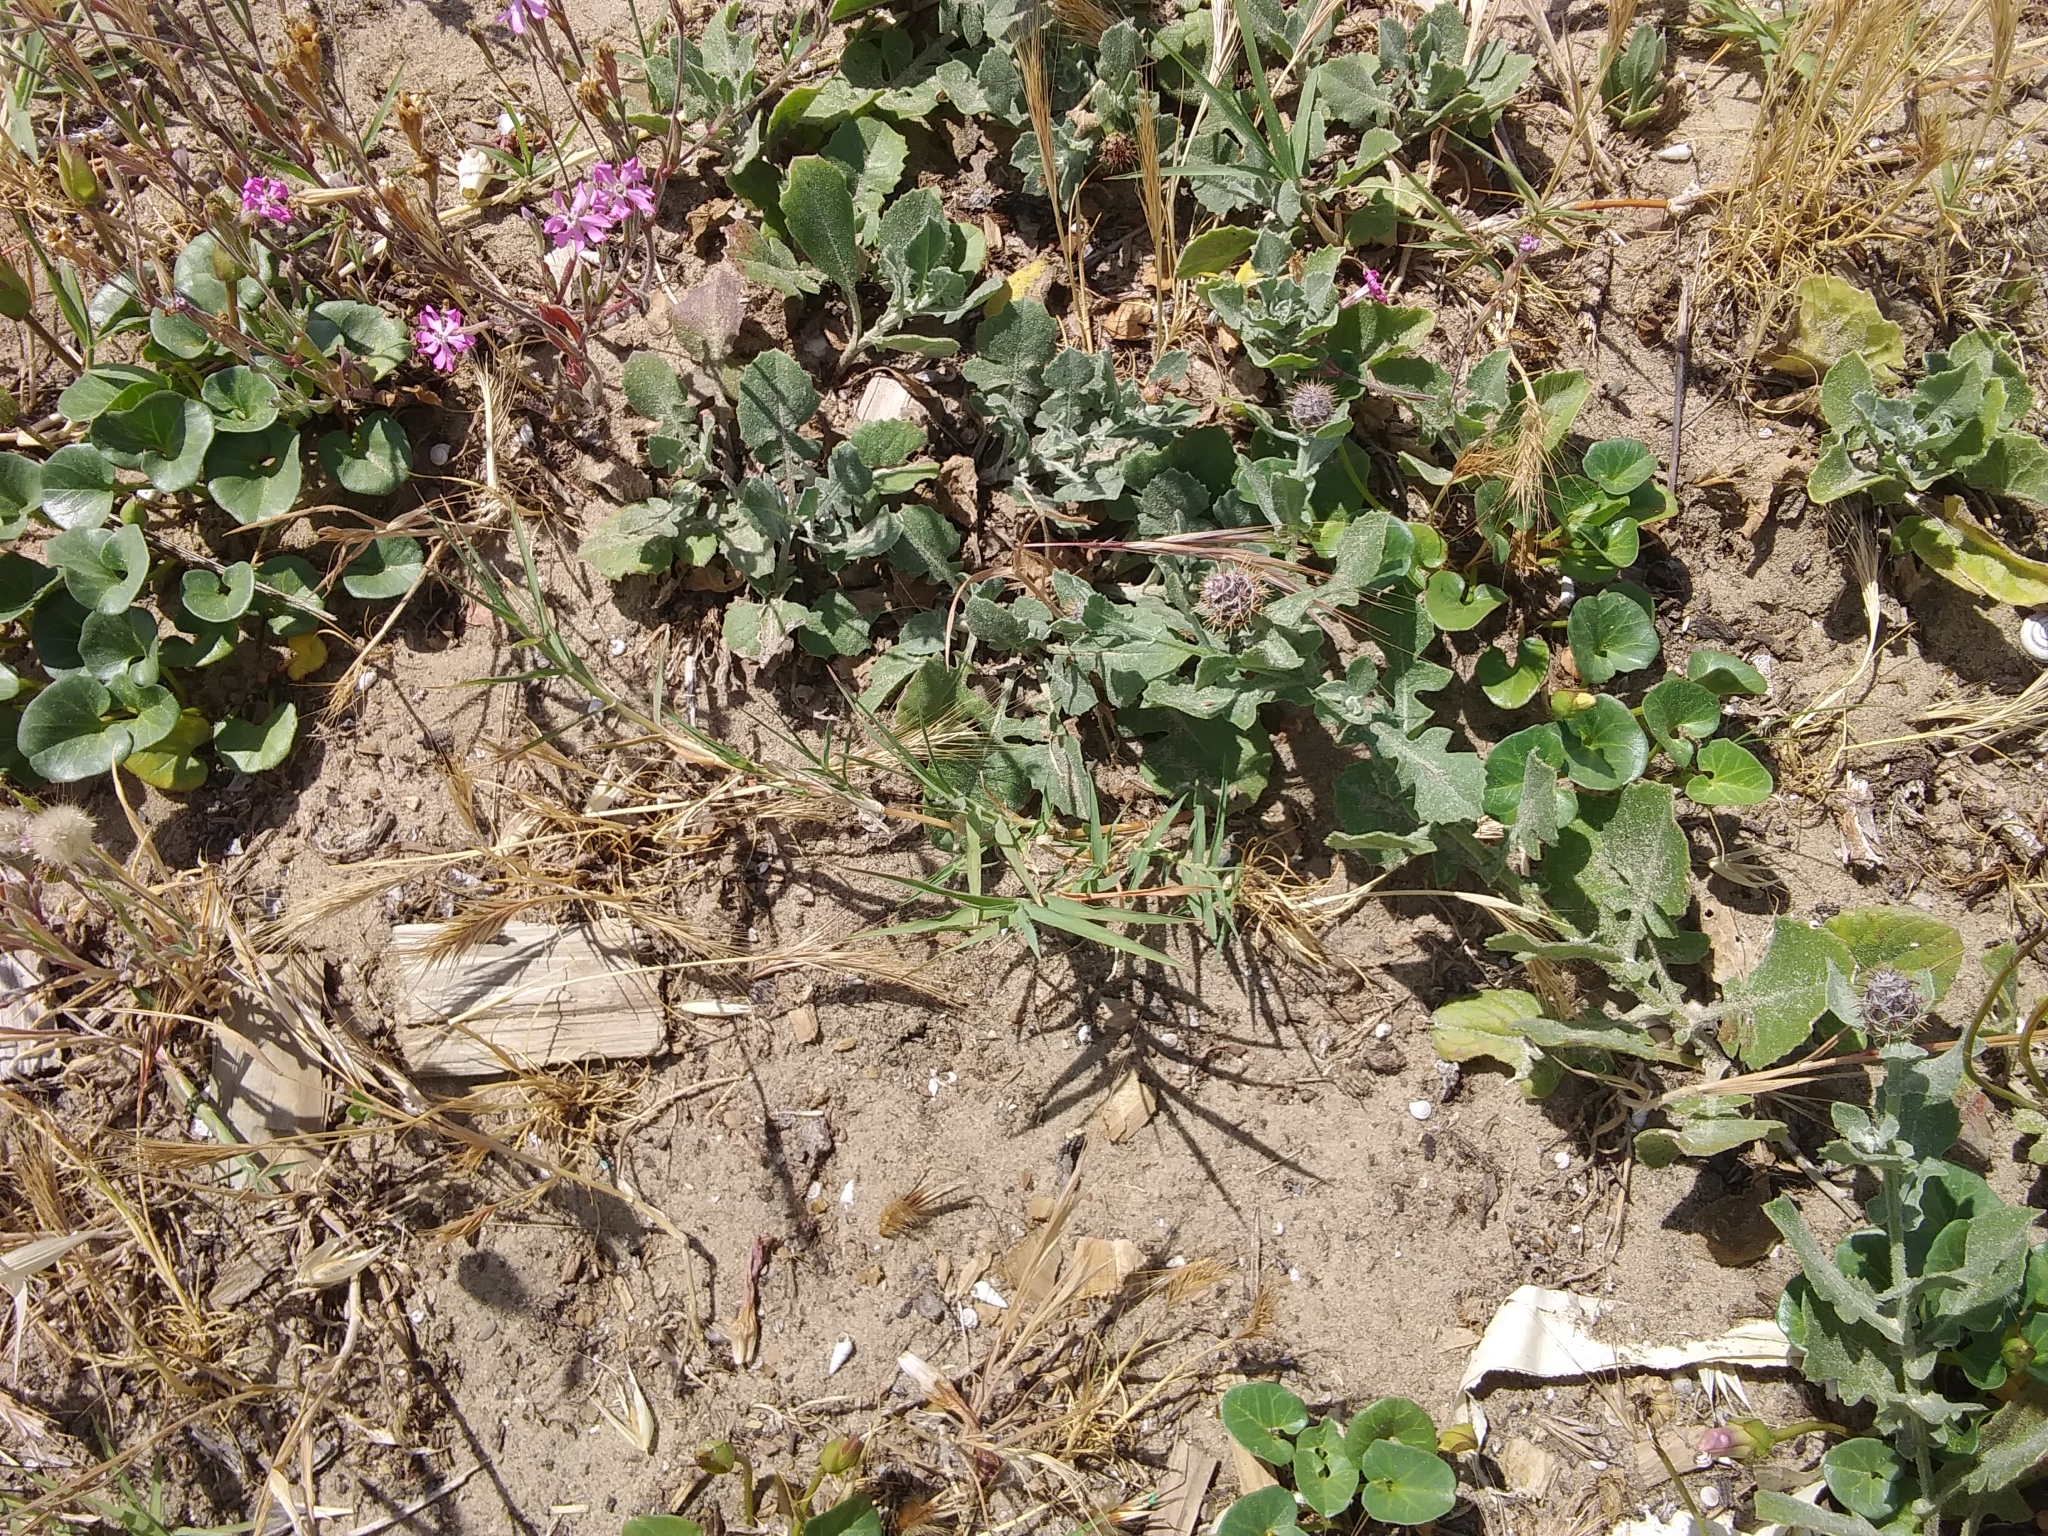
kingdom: Plantae
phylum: Tracheophyta
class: Magnoliopsida
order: Asterales
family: Asteraceae
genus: Centaurea
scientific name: Centaurea sphaerocephala
